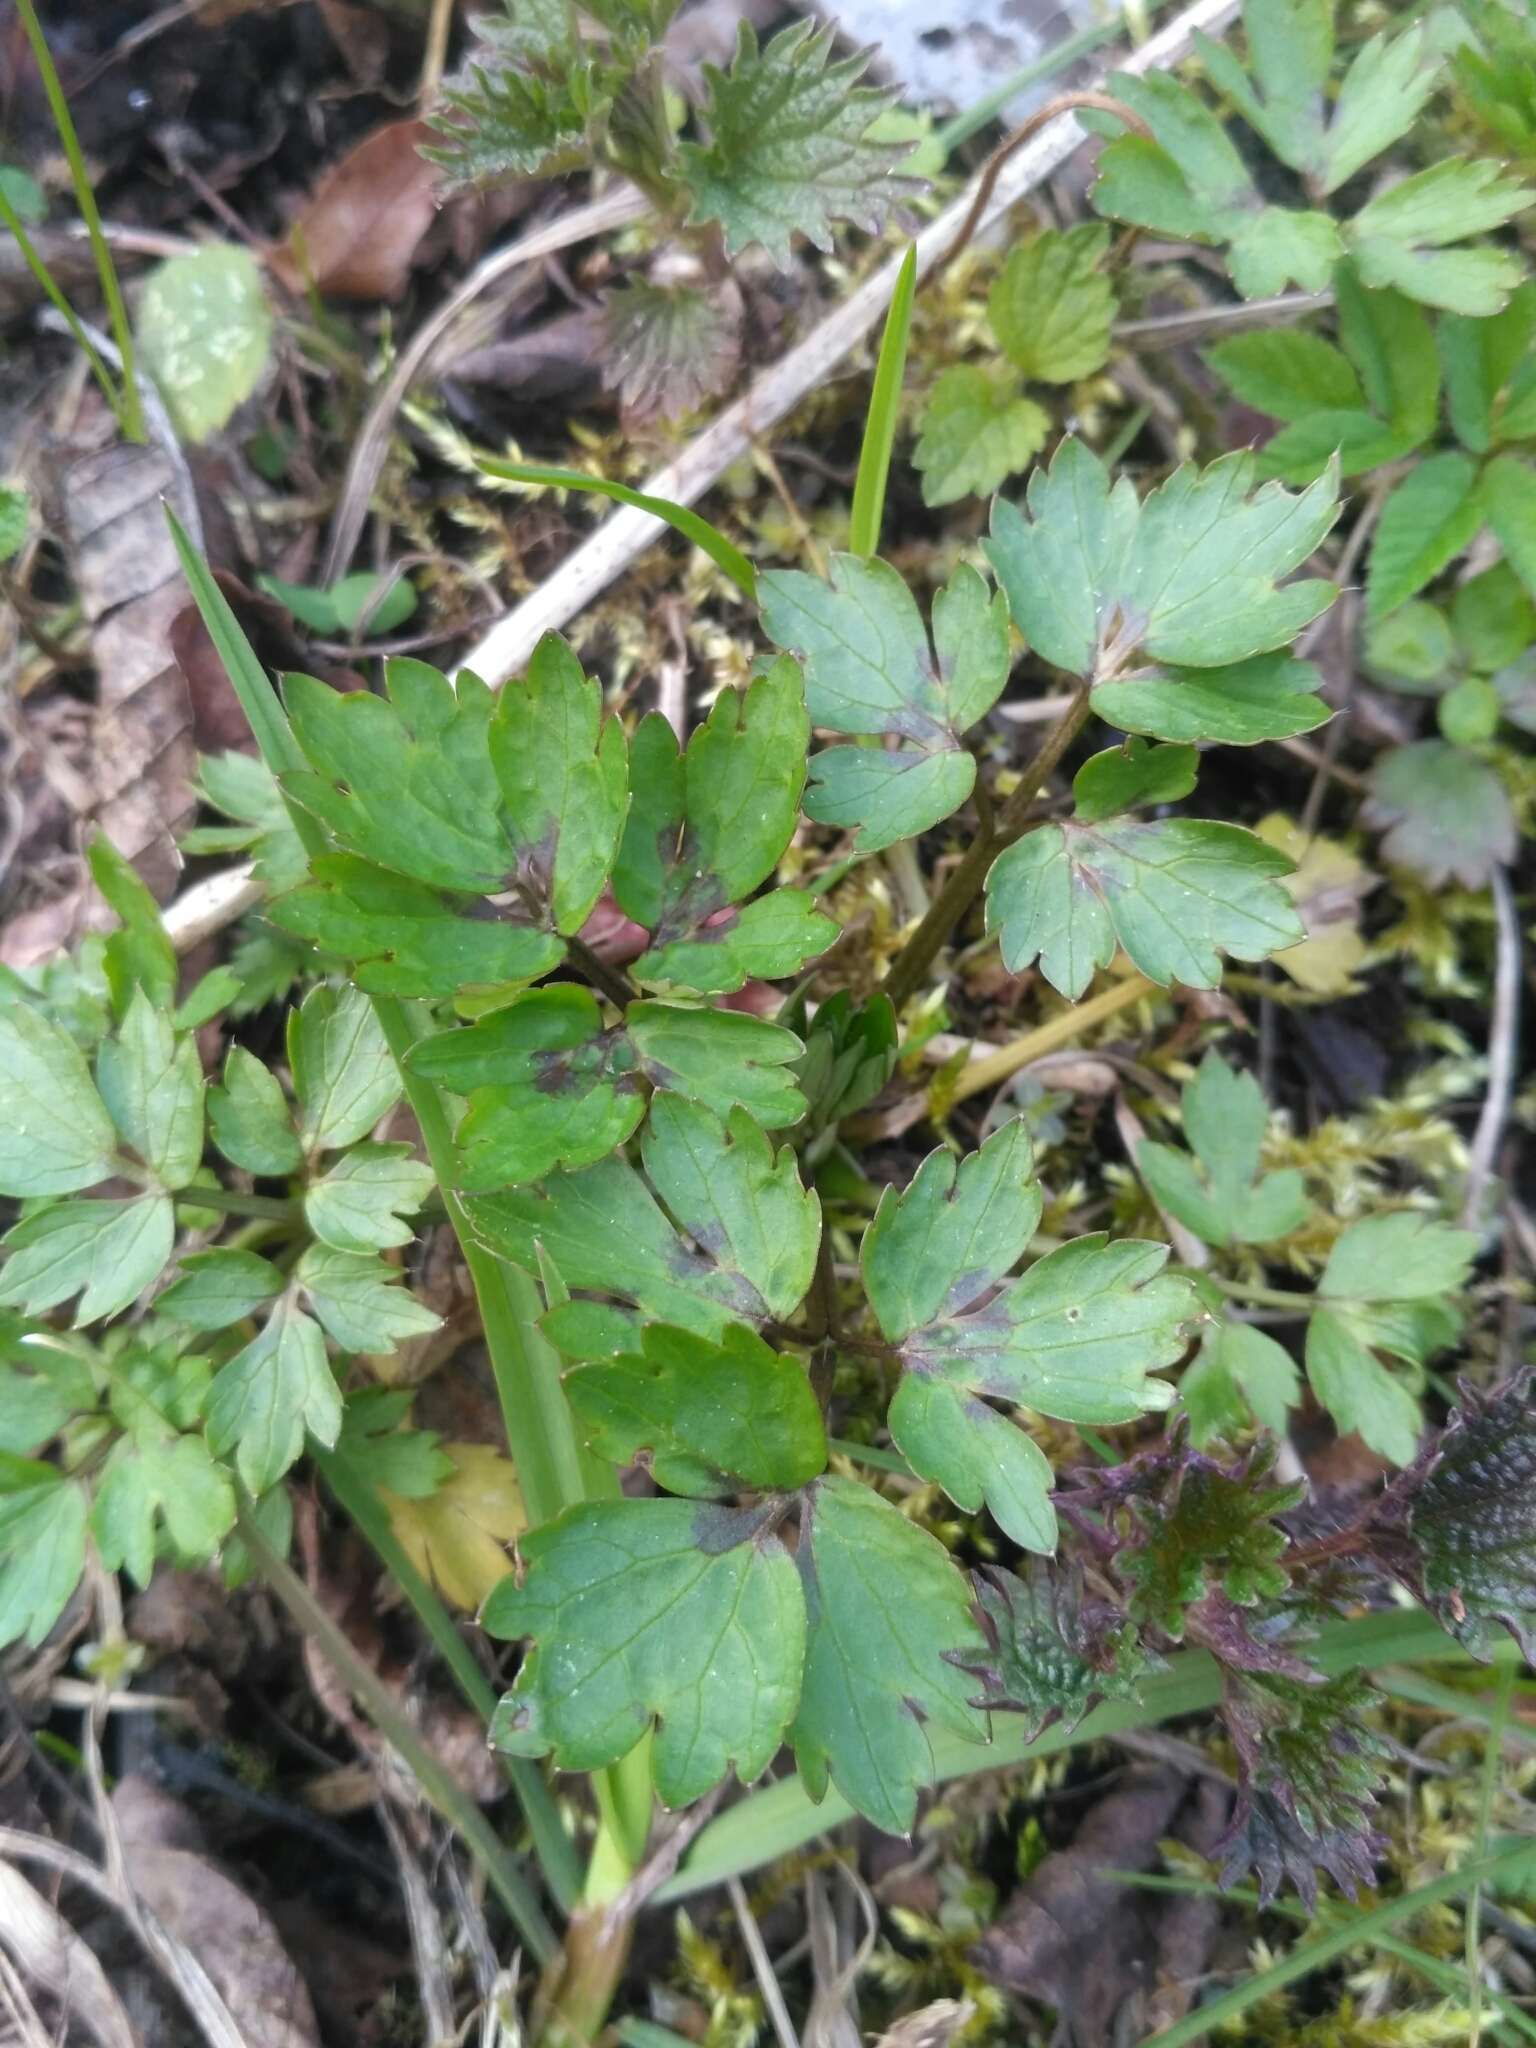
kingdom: Plantae
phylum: Tracheophyta
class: Magnoliopsida
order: Ranunculales
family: Ranunculaceae
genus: Ranunculus
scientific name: Ranunculus repens
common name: Creeping buttercup
